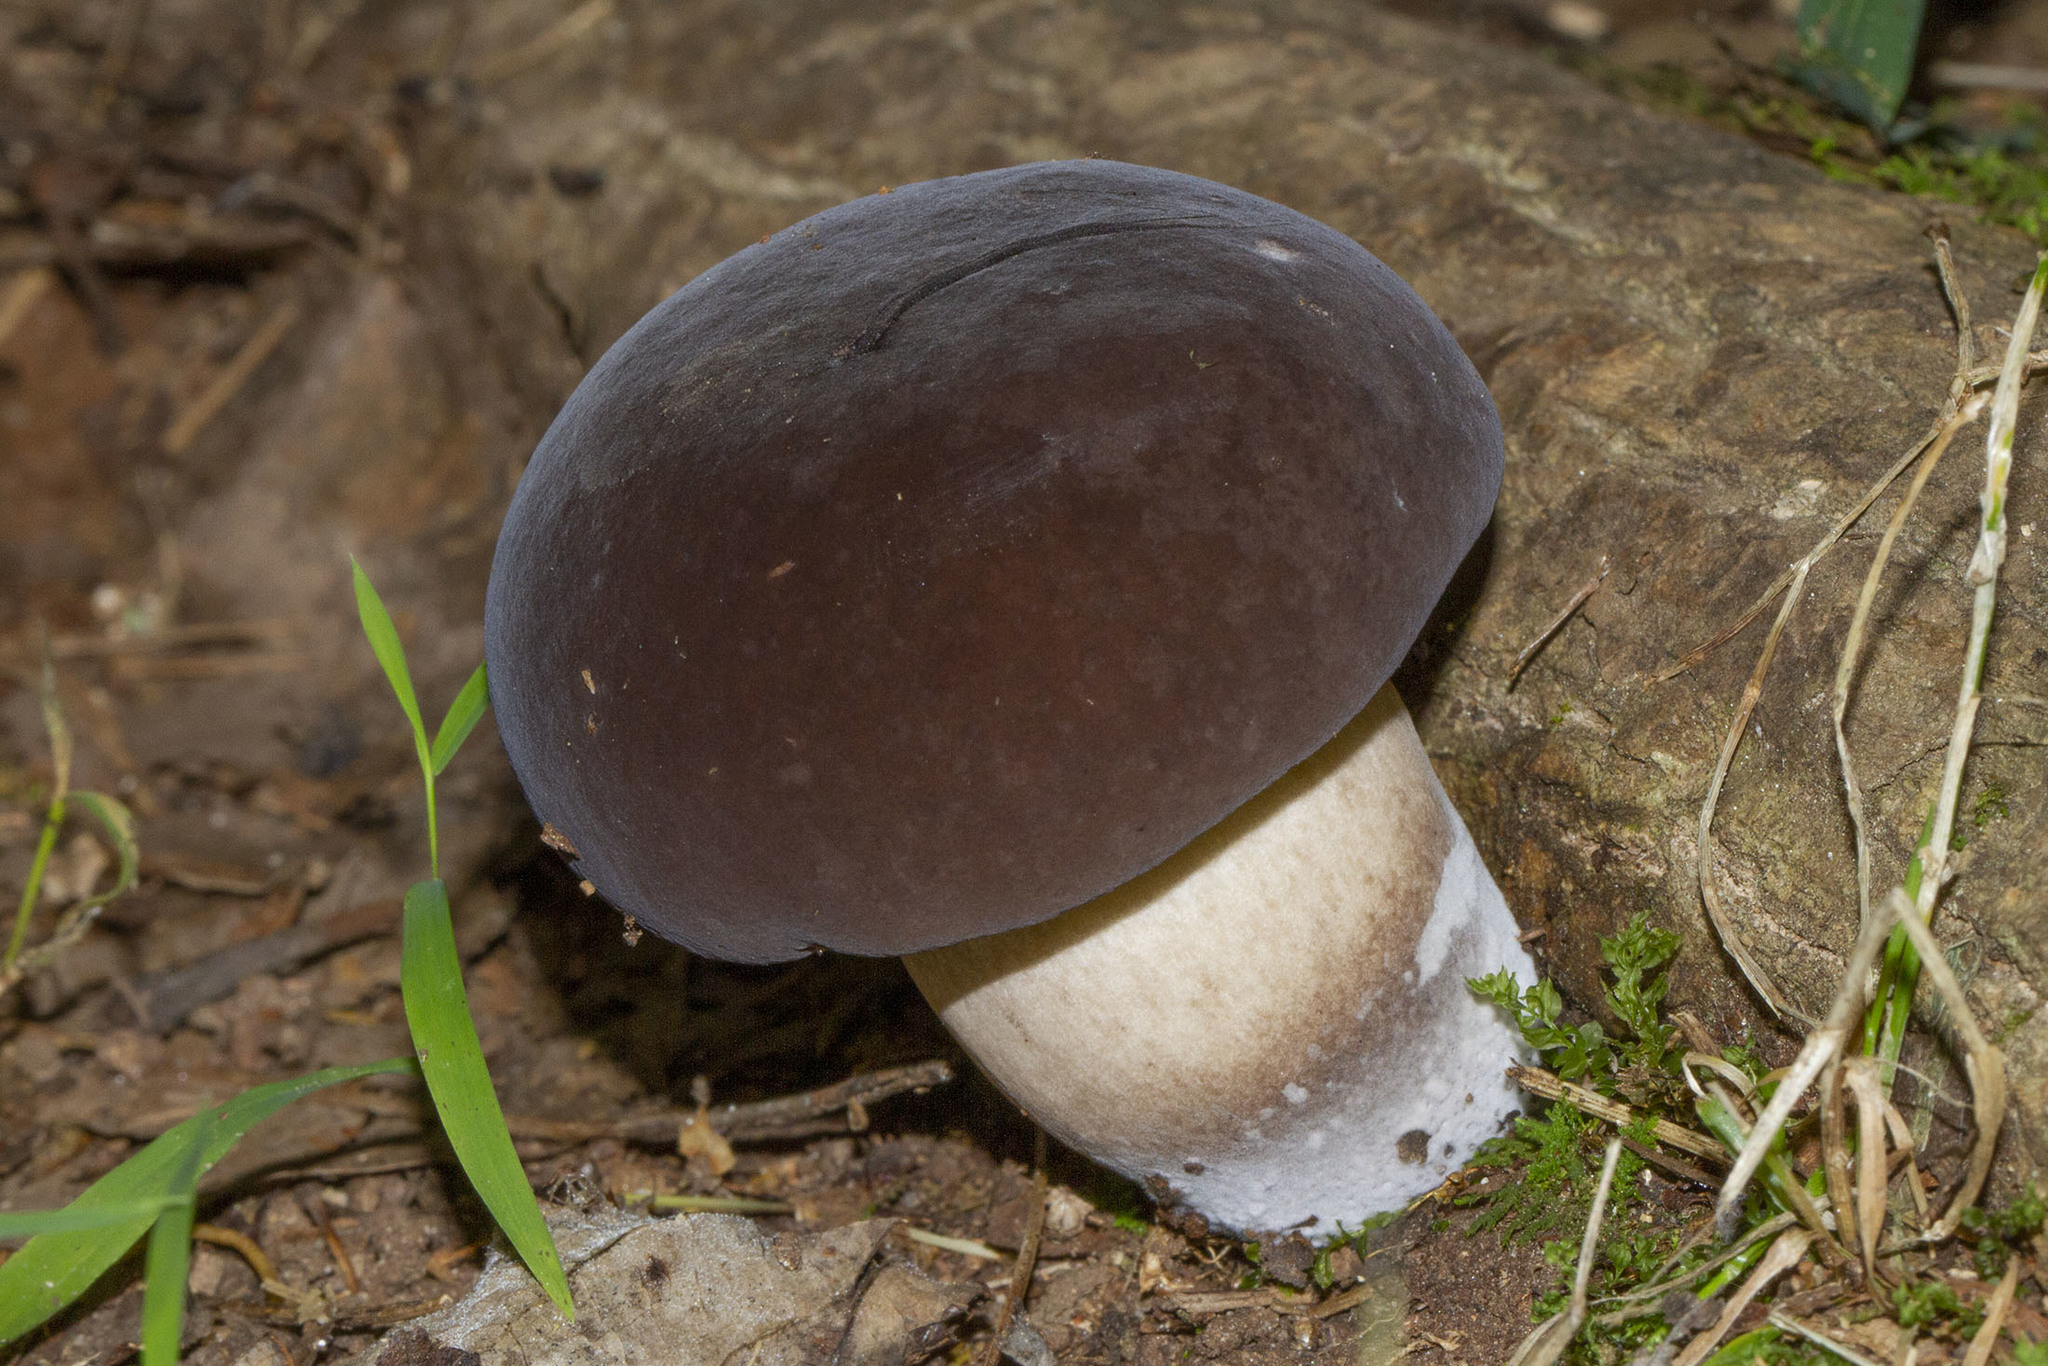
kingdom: Fungi
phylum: Basidiomycota
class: Agaricomycetes
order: Boletales
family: Boletaceae
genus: Tylopilus
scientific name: Tylopilus alboater
